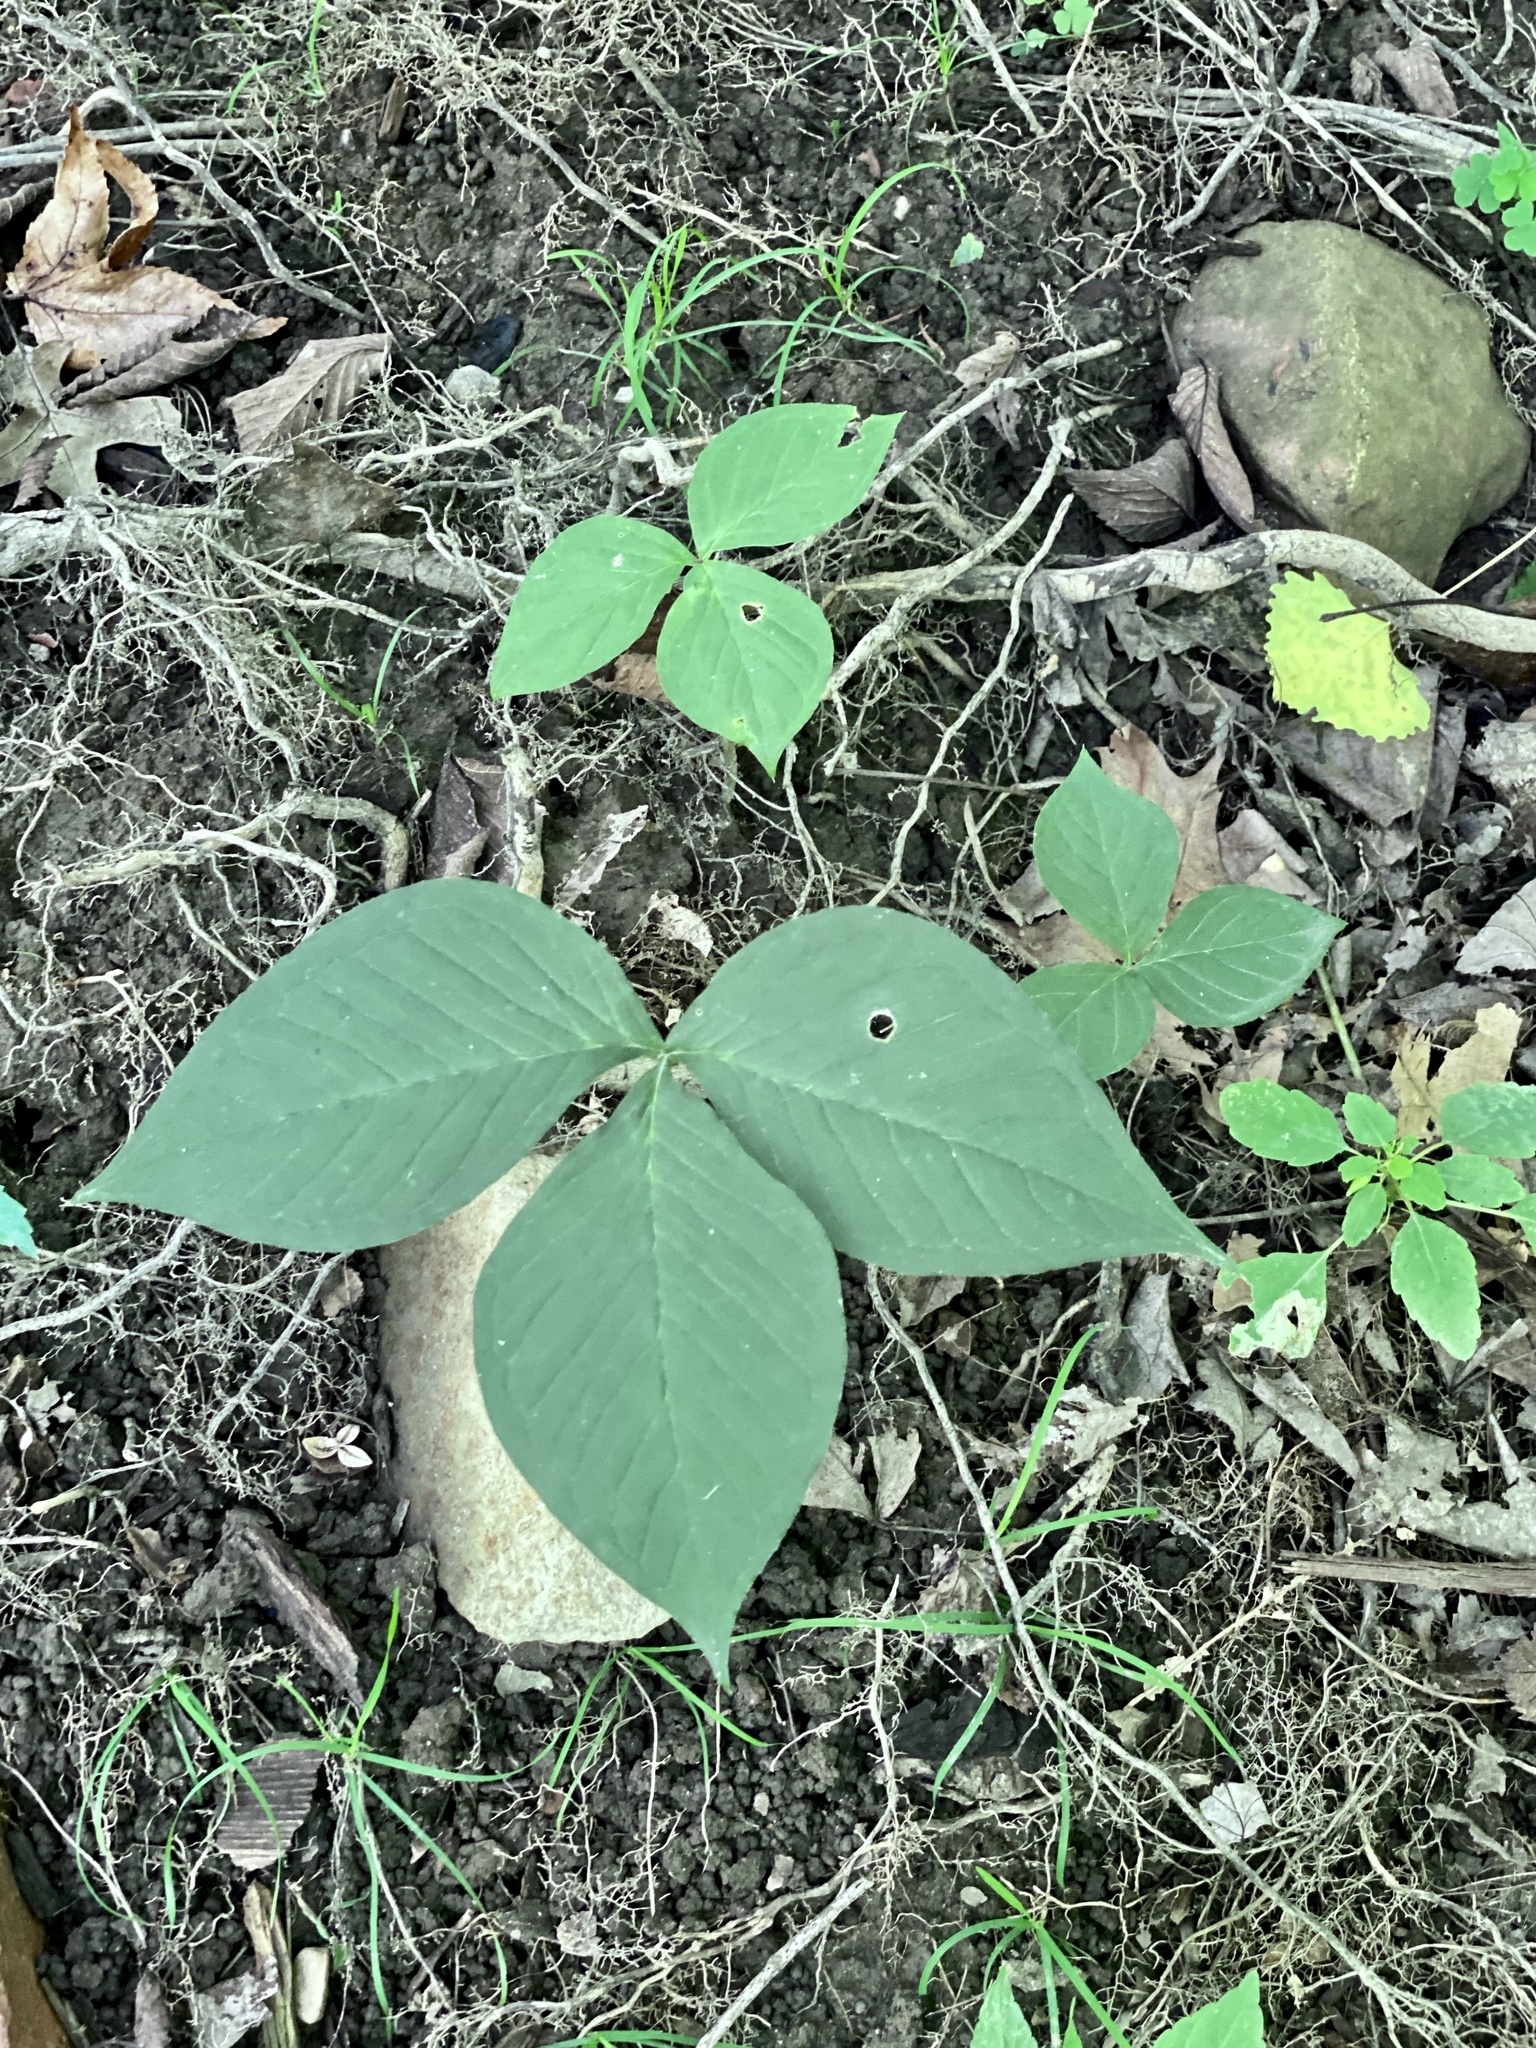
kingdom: Plantae
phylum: Tracheophyta
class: Liliopsida
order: Alismatales
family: Araceae
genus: Arisaema
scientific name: Arisaema triphyllum
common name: Jack-in-the-pulpit
